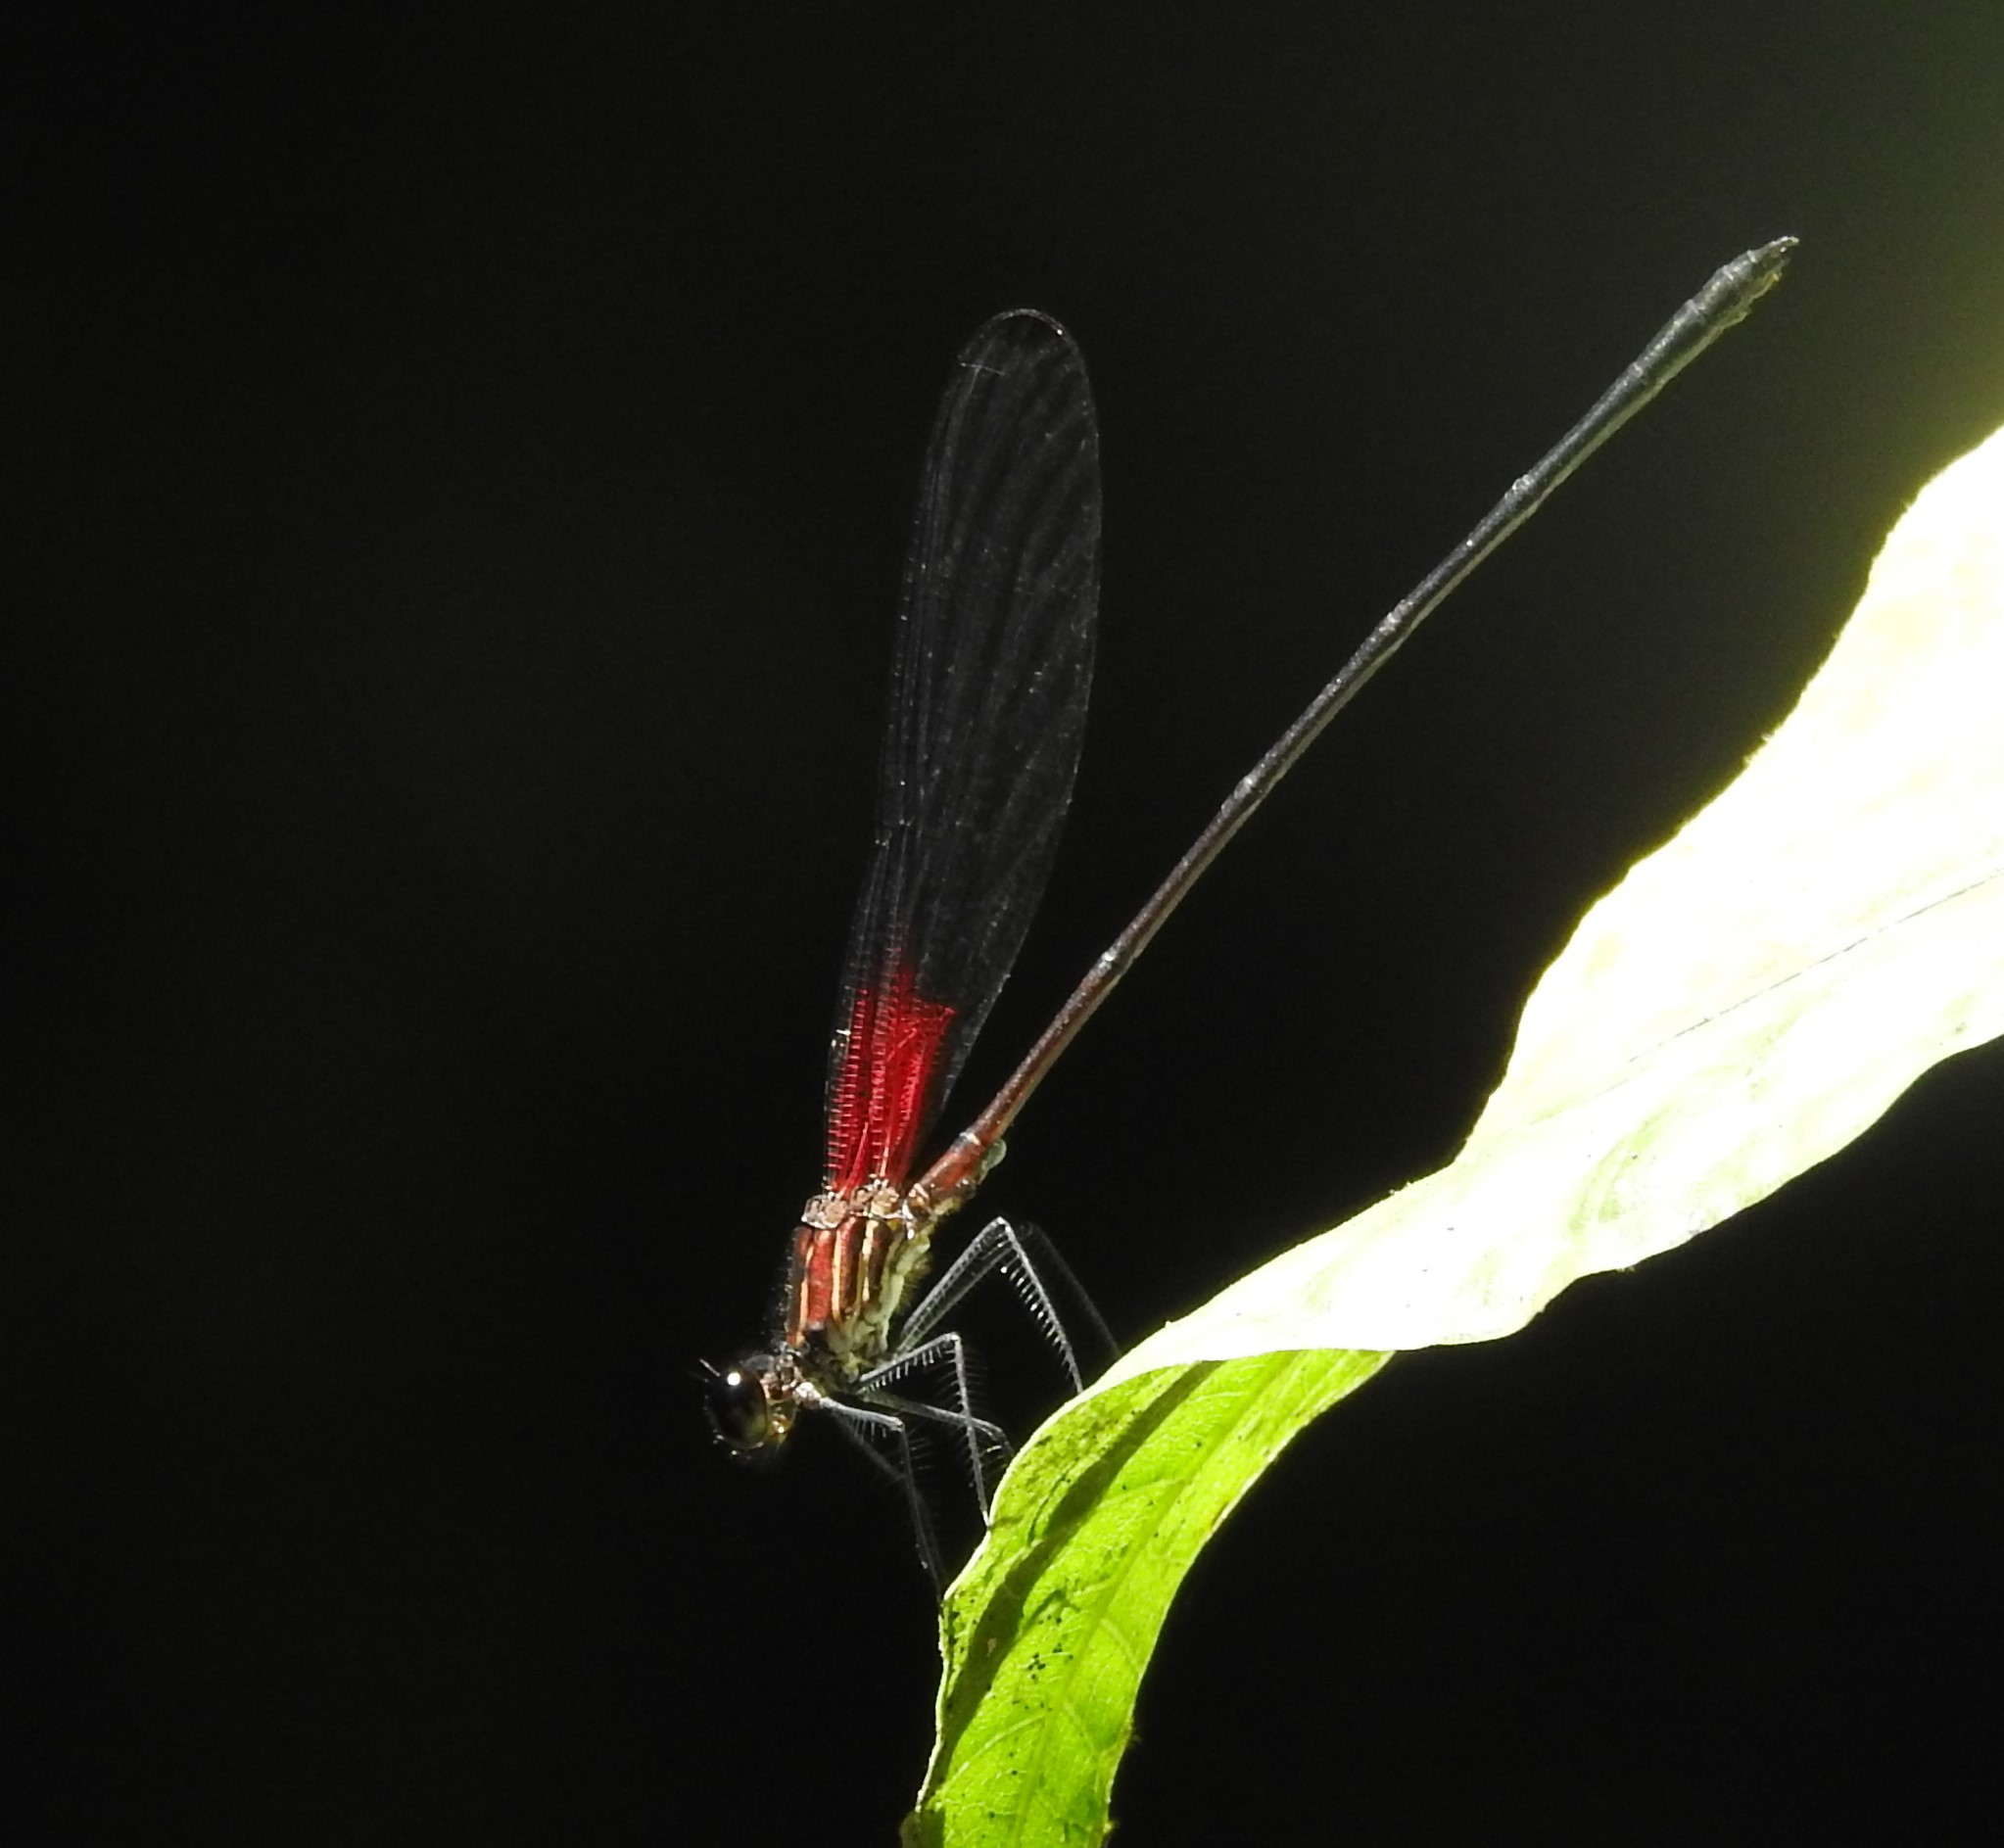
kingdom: Animalia
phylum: Arthropoda
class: Insecta
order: Odonata
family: Calopterygidae
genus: Hetaerina
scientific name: Hetaerina caja
